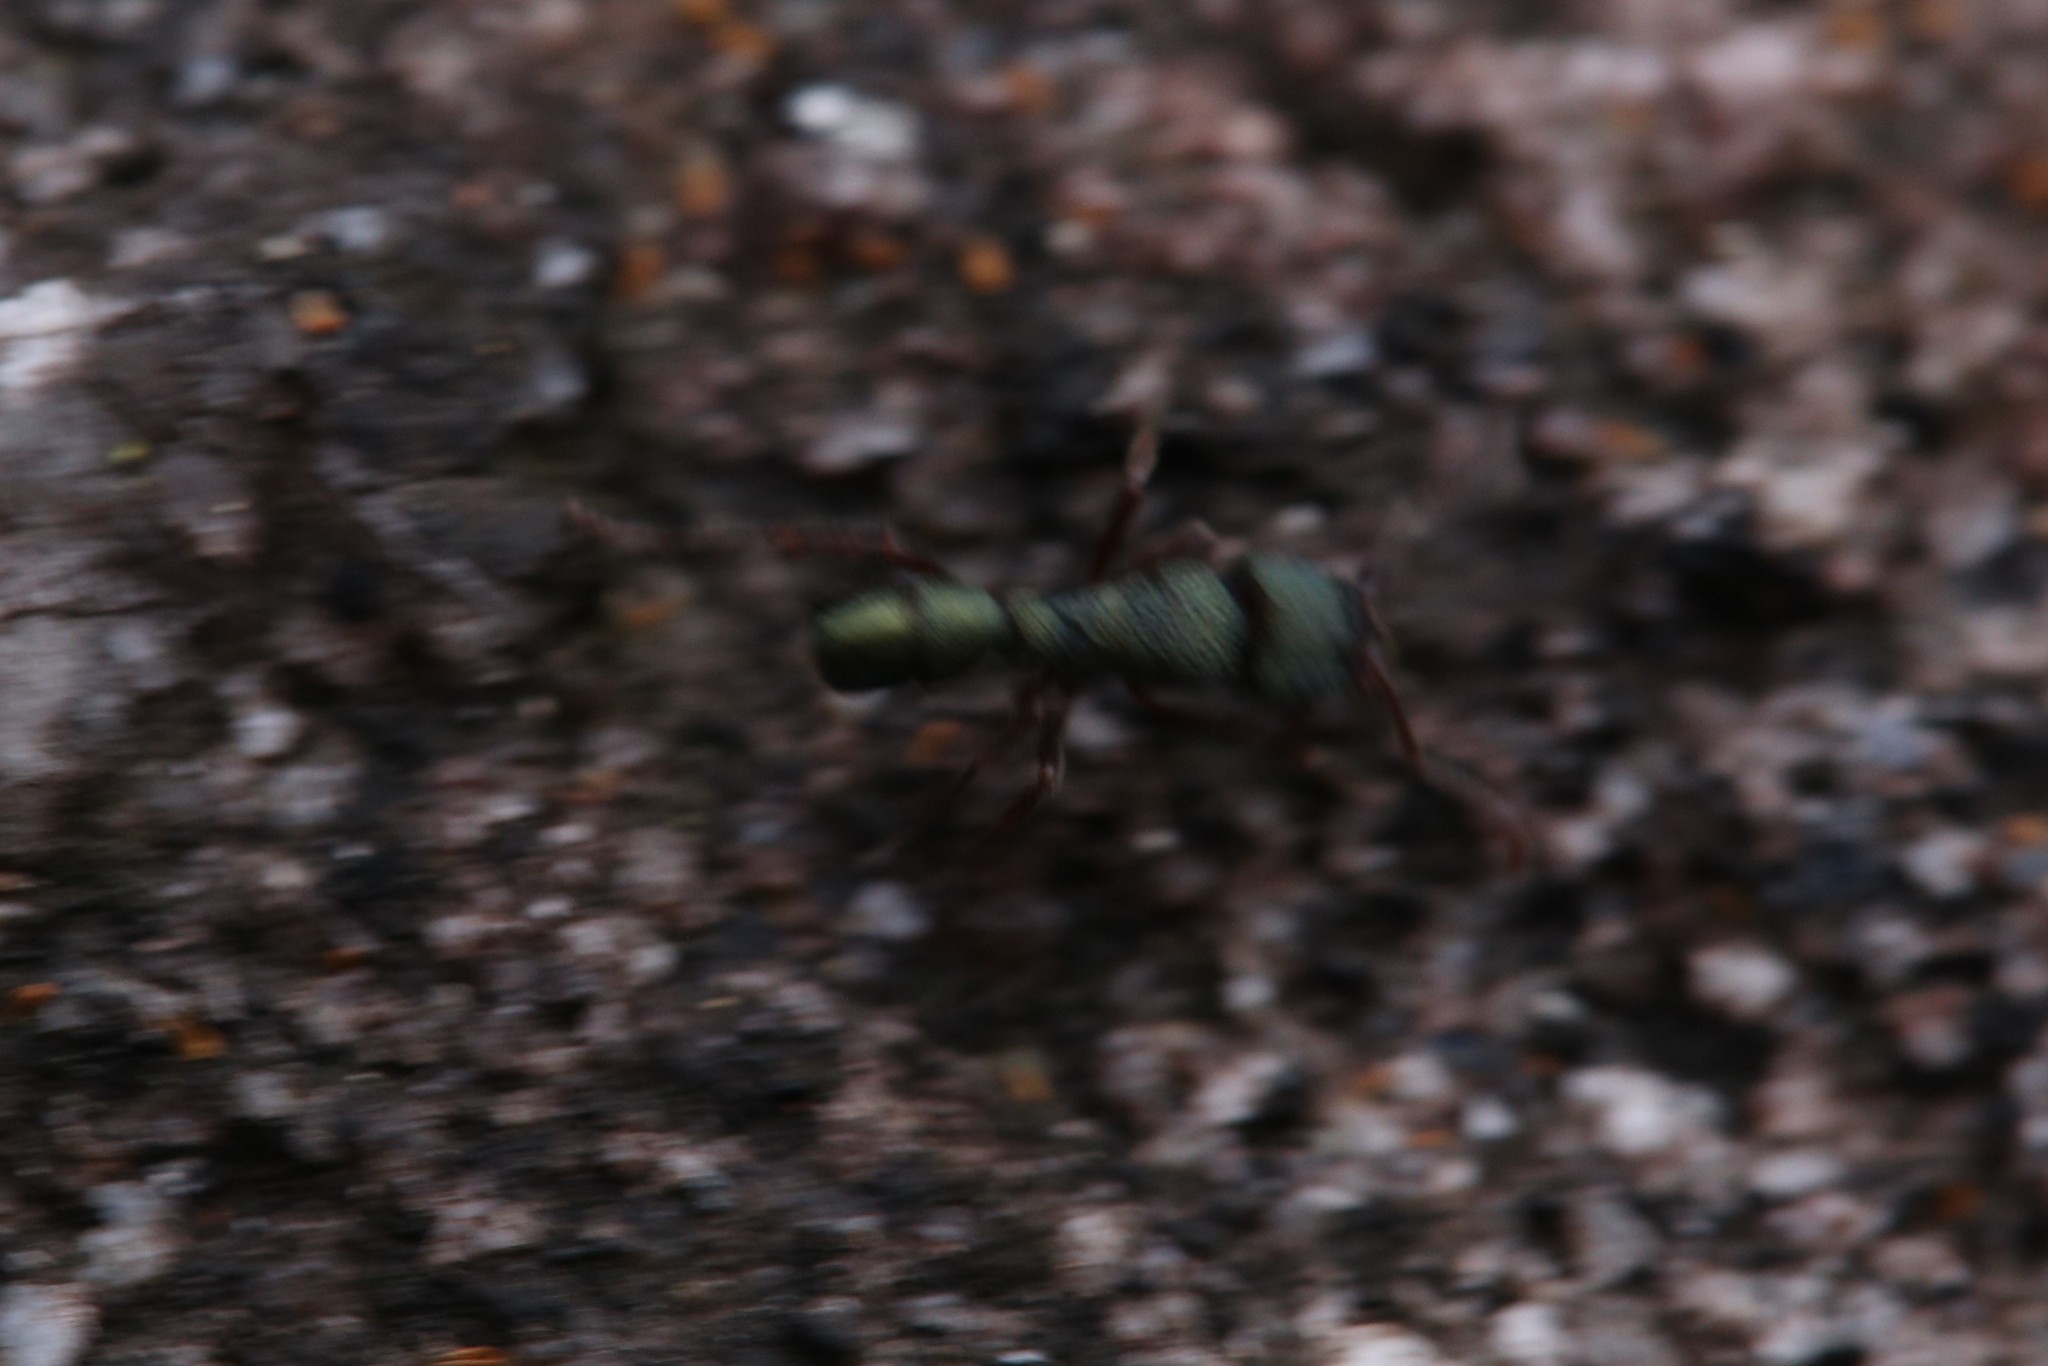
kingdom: Animalia
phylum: Arthropoda
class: Insecta
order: Hymenoptera
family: Formicidae
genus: Rhytidoponera
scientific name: Rhytidoponera metallica
